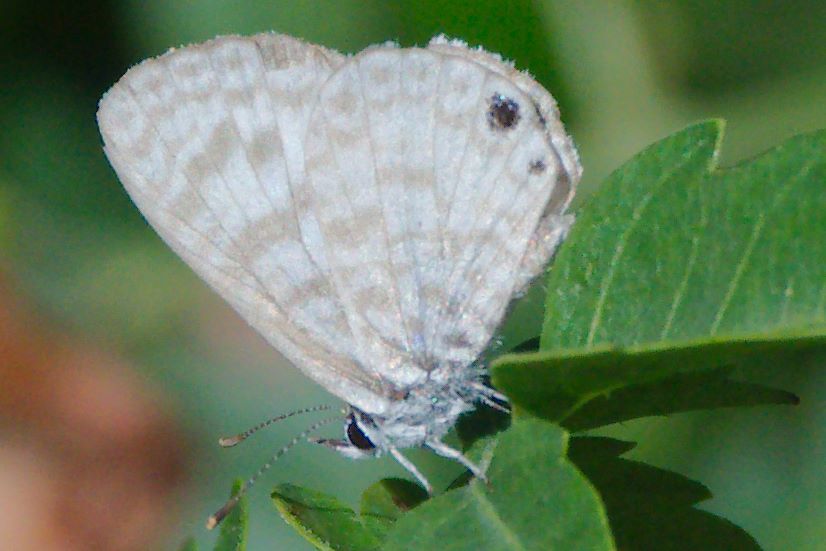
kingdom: Animalia
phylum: Arthropoda
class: Insecta
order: Lepidoptera
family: Lycaenidae
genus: Leptotes
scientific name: Leptotes cassius
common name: Cassius blue
